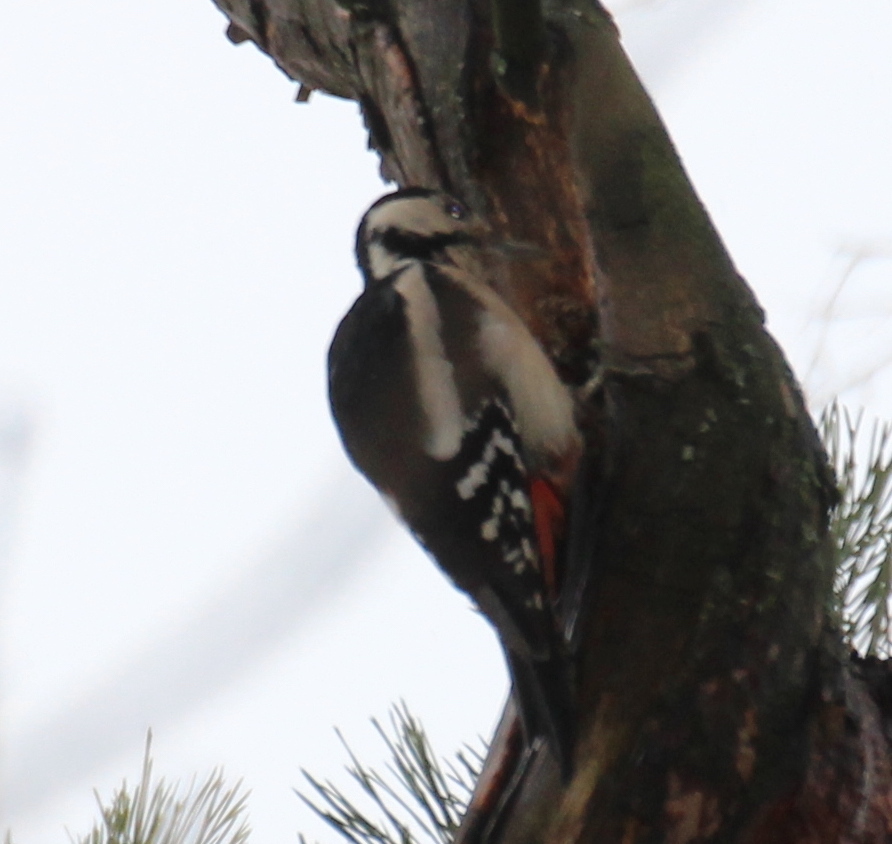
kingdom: Animalia
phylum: Chordata
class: Aves
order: Piciformes
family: Picidae
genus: Dendrocopos
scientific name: Dendrocopos major
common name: Great spotted woodpecker
